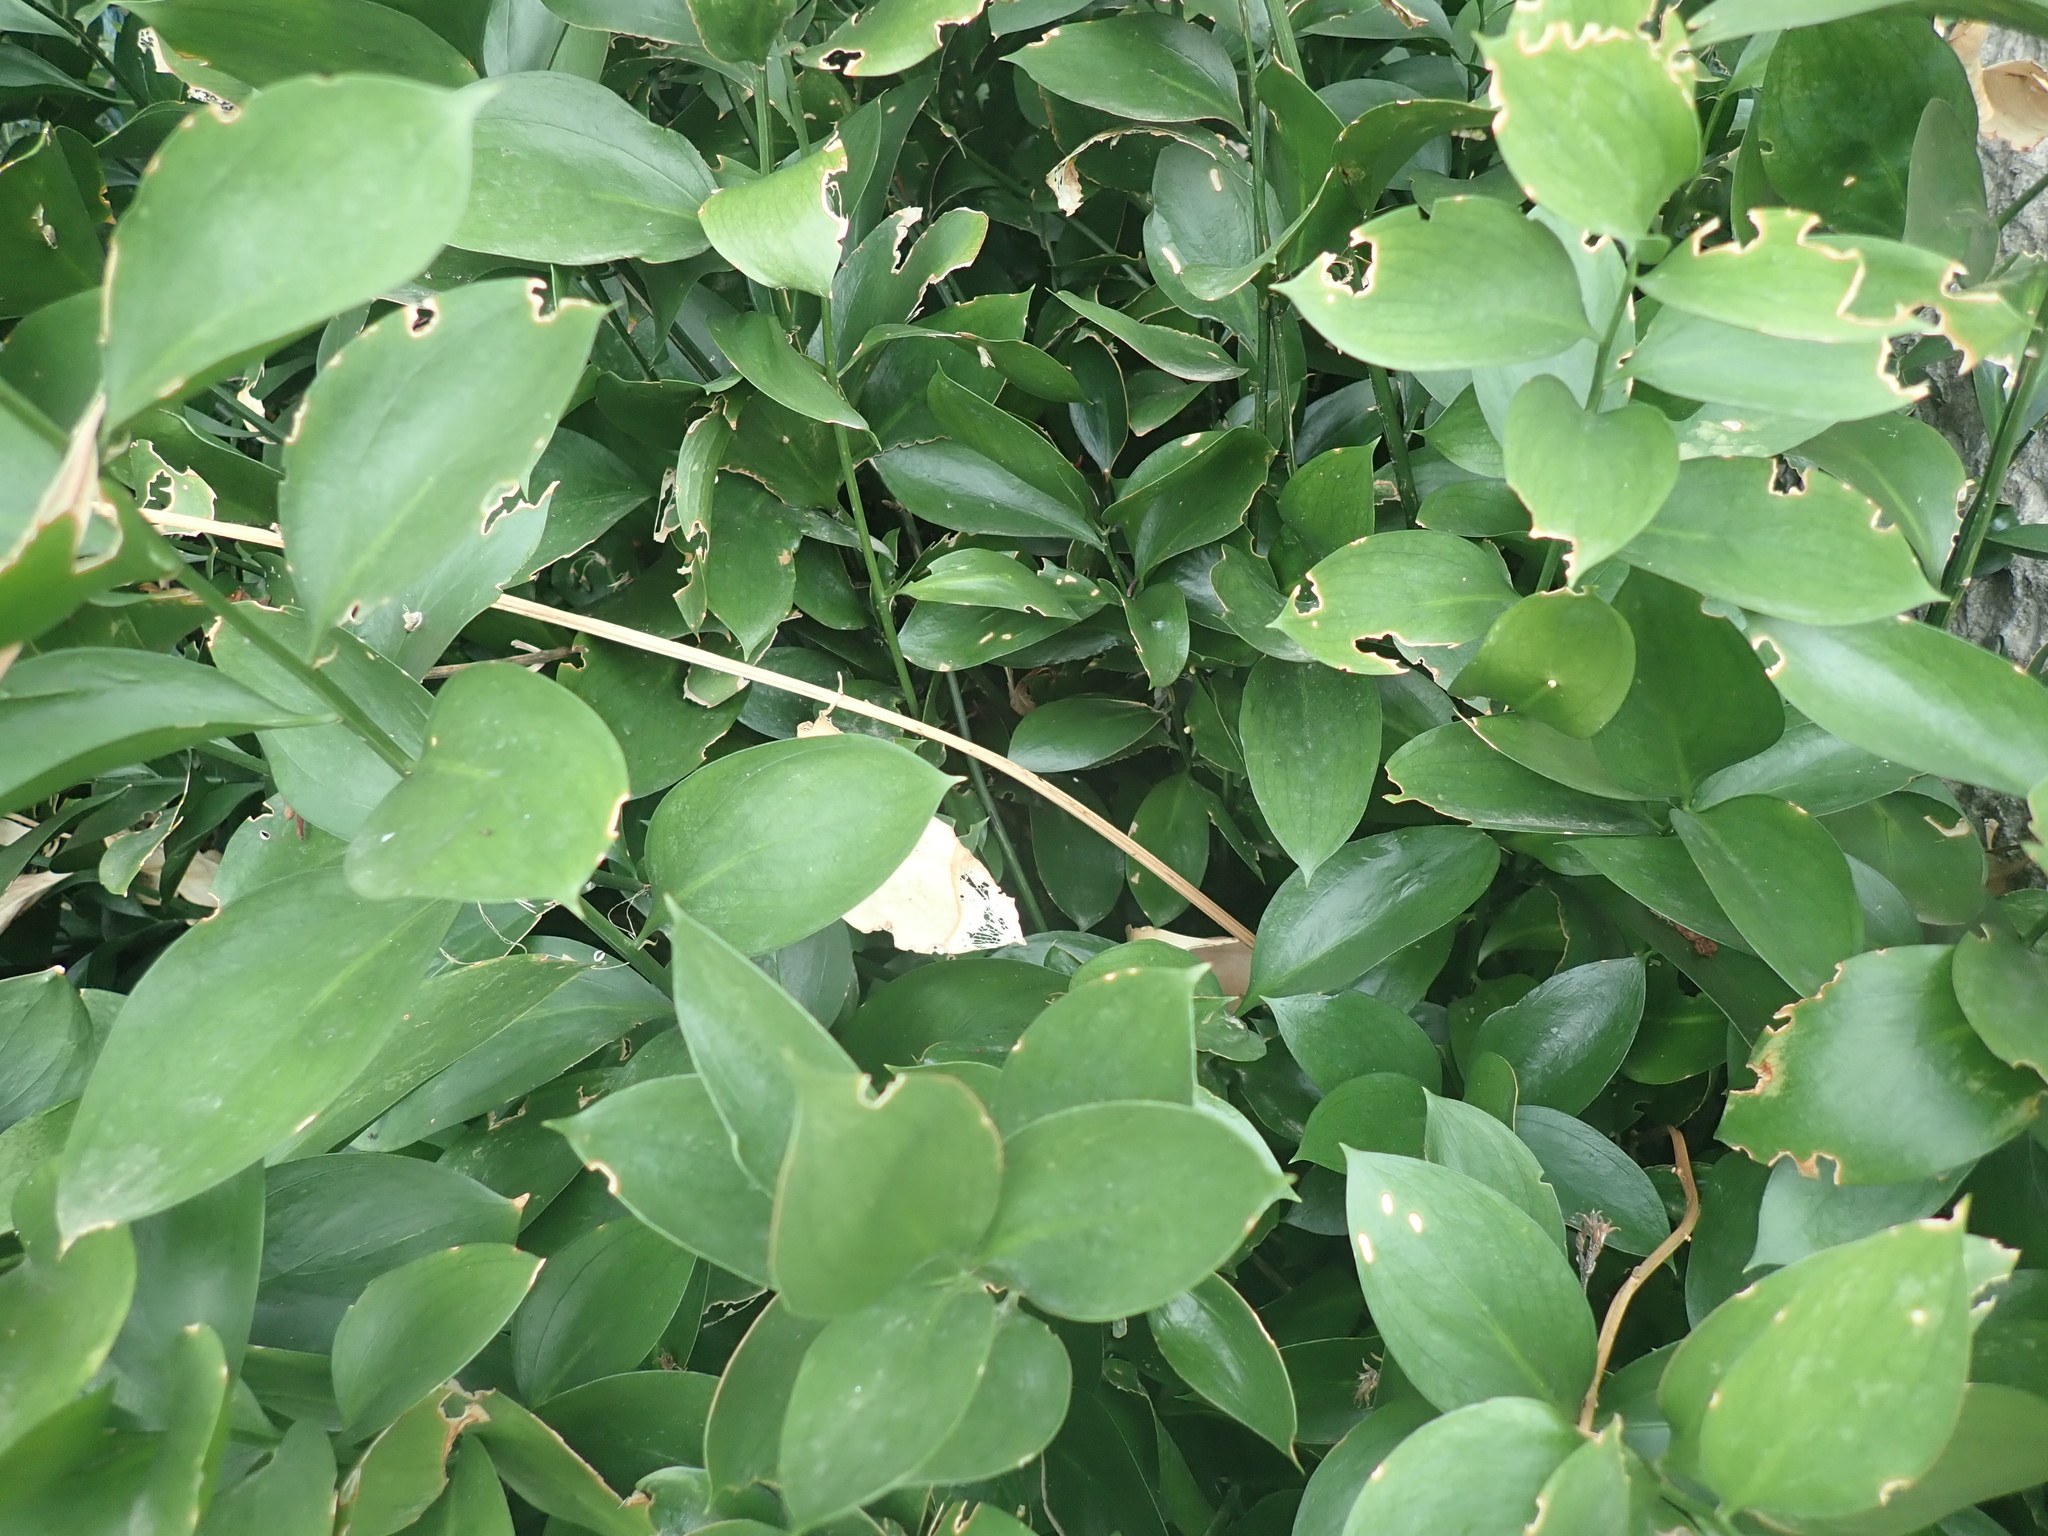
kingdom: Plantae
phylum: Tracheophyta
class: Liliopsida
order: Asparagales
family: Asparagaceae
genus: Ruscus
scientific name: Ruscus hypoglossum
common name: Spineless butcher's-broom
